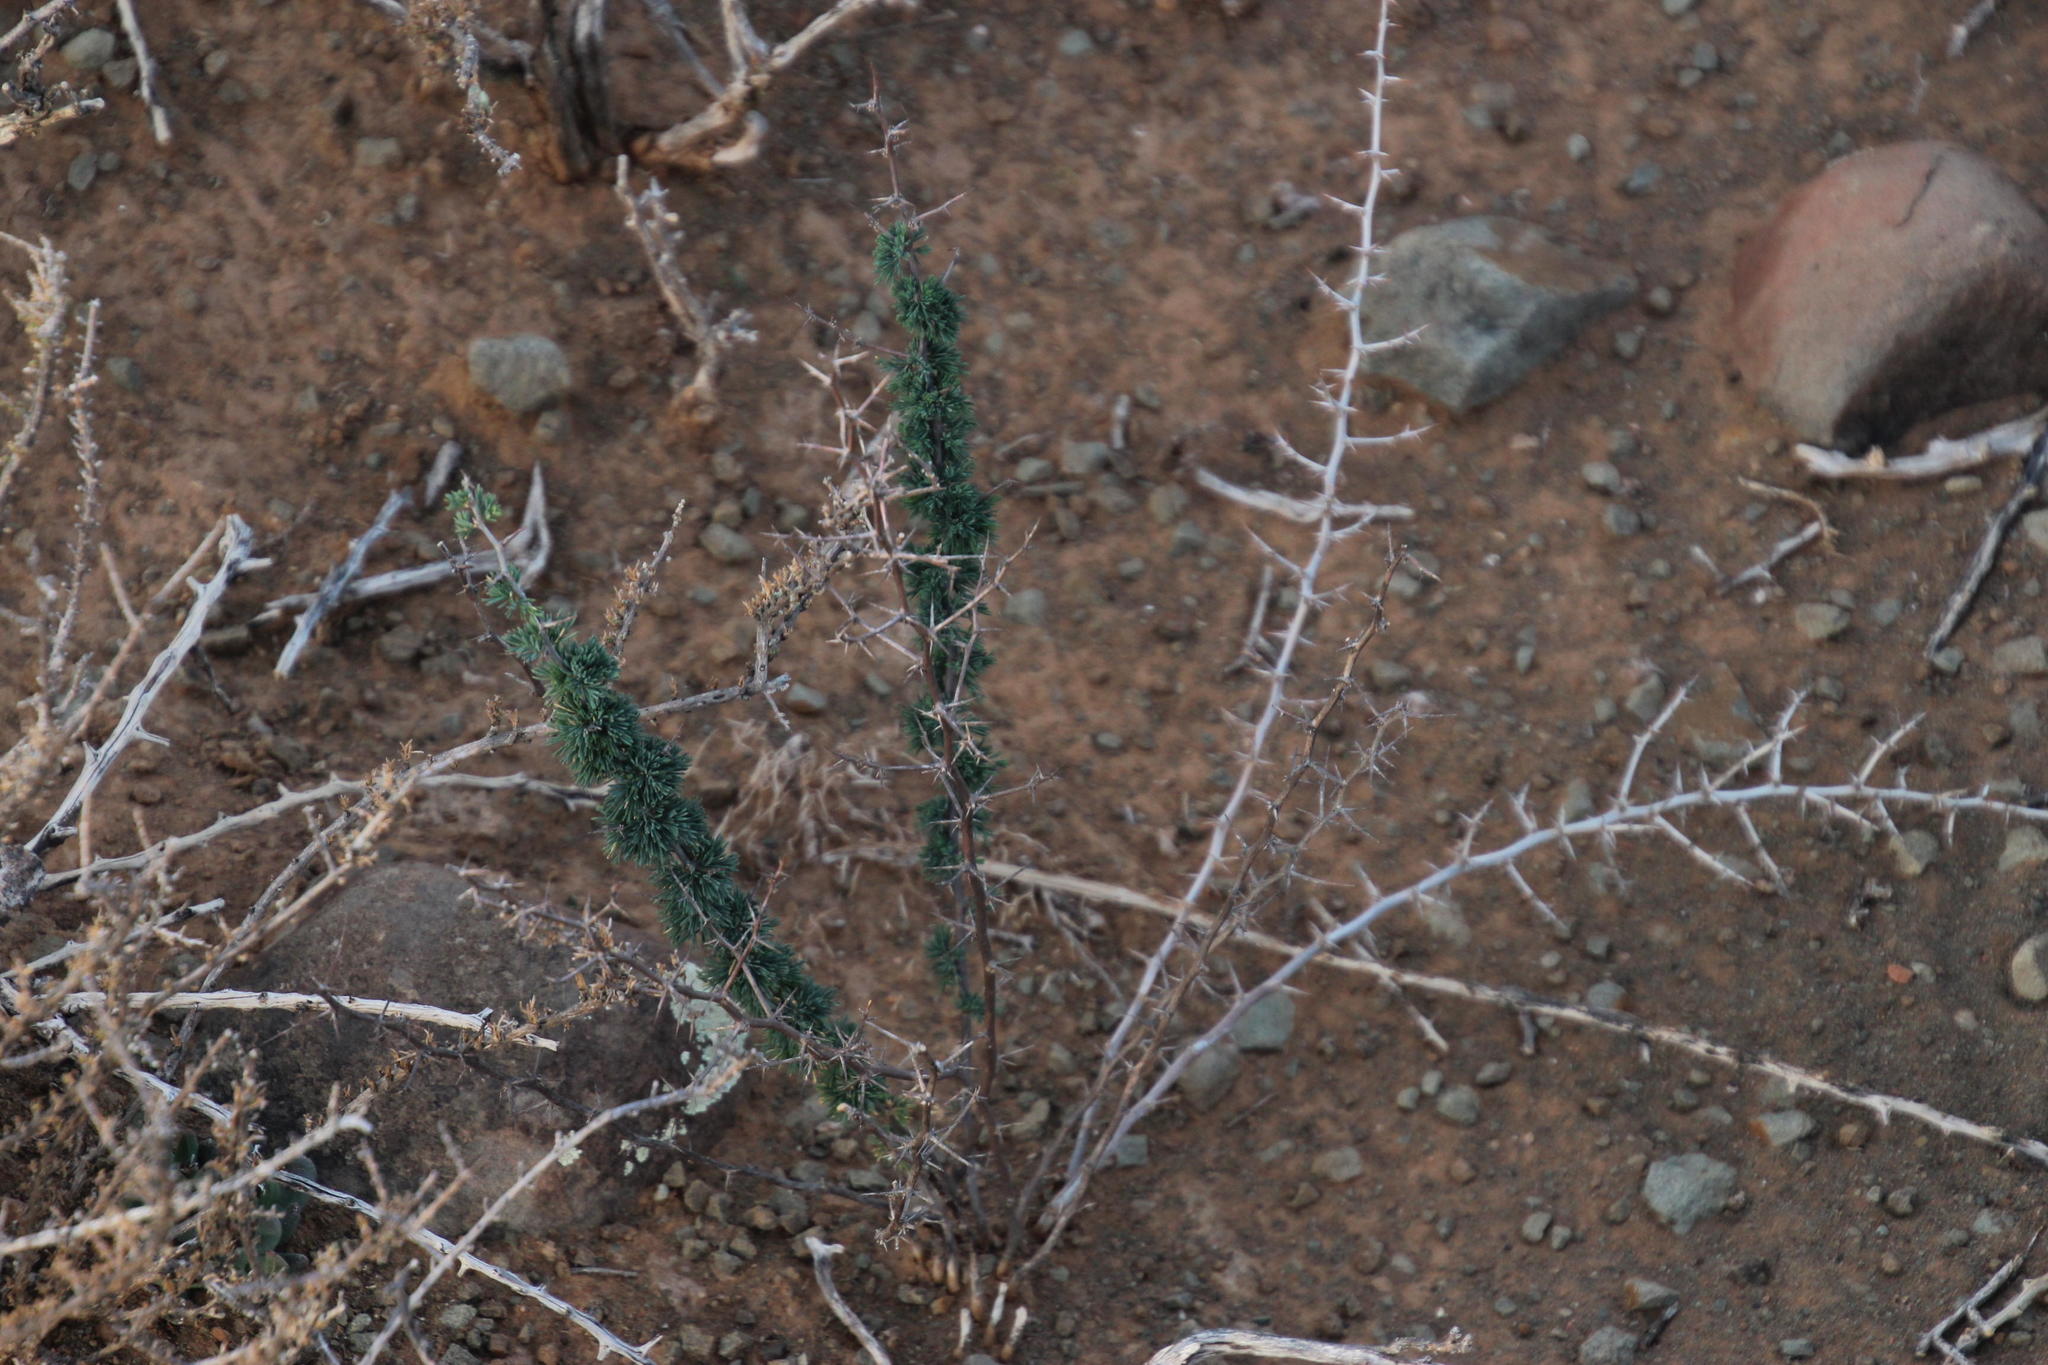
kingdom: Plantae
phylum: Tracheophyta
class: Liliopsida
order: Asparagales
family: Asparagaceae
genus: Asparagus
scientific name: Asparagus suaveolens
